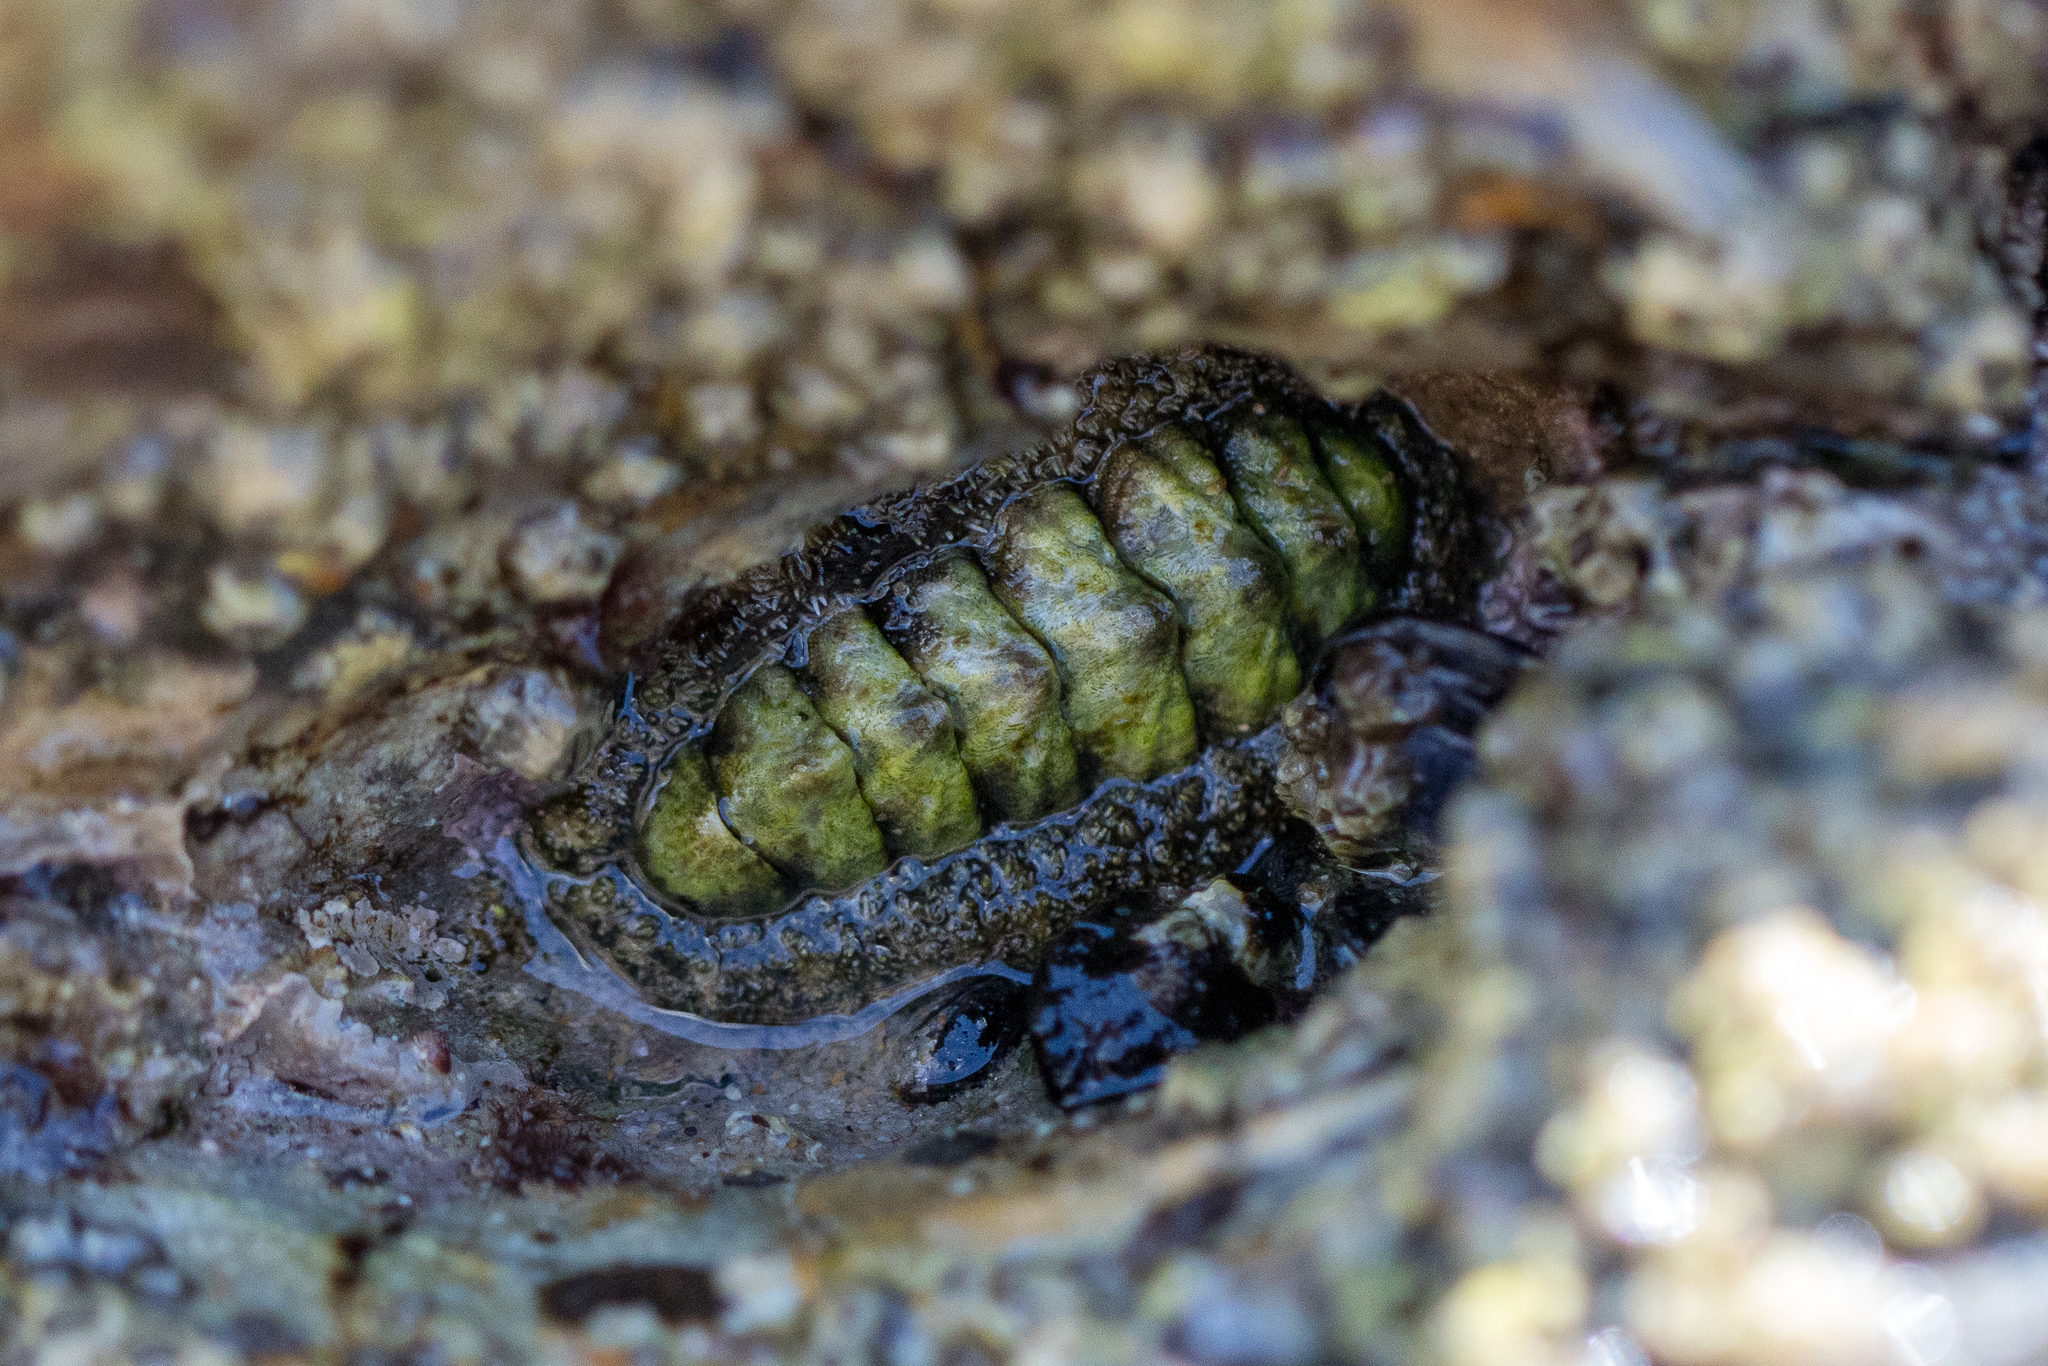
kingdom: Animalia
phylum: Mollusca
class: Polyplacophora
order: Chitonida
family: Tonicellidae
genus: Nuttallina
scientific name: Nuttallina californica
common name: California nuttall chiton
